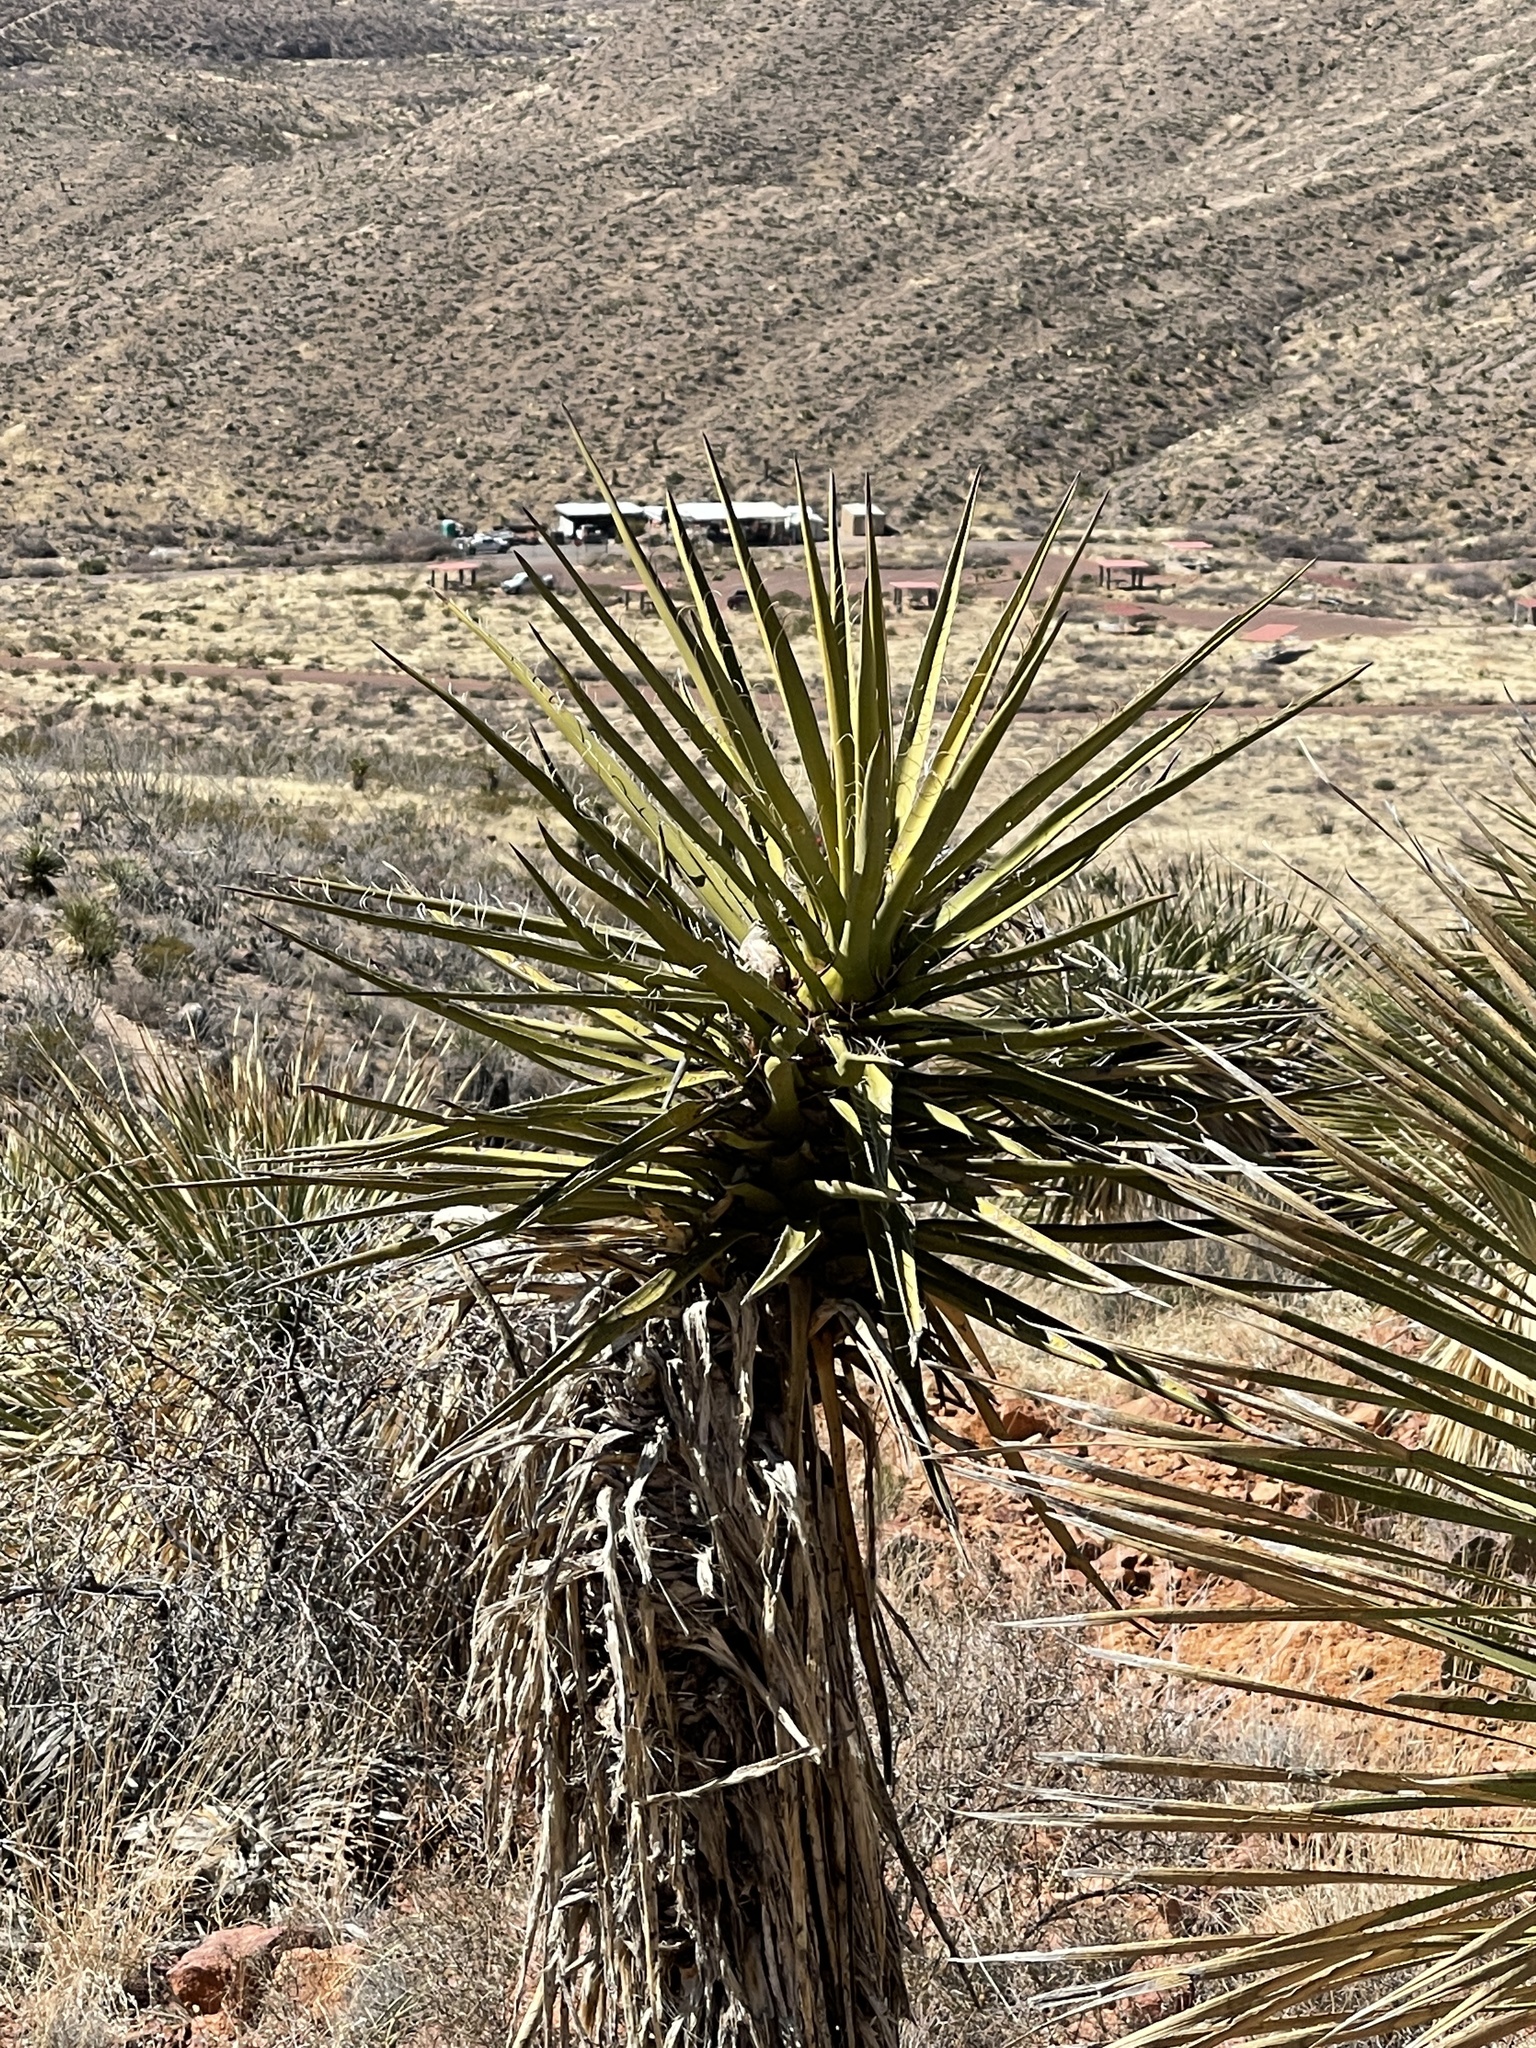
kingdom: Plantae
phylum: Tracheophyta
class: Liliopsida
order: Asparagales
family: Asparagaceae
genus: Yucca
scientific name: Yucca treculiana
